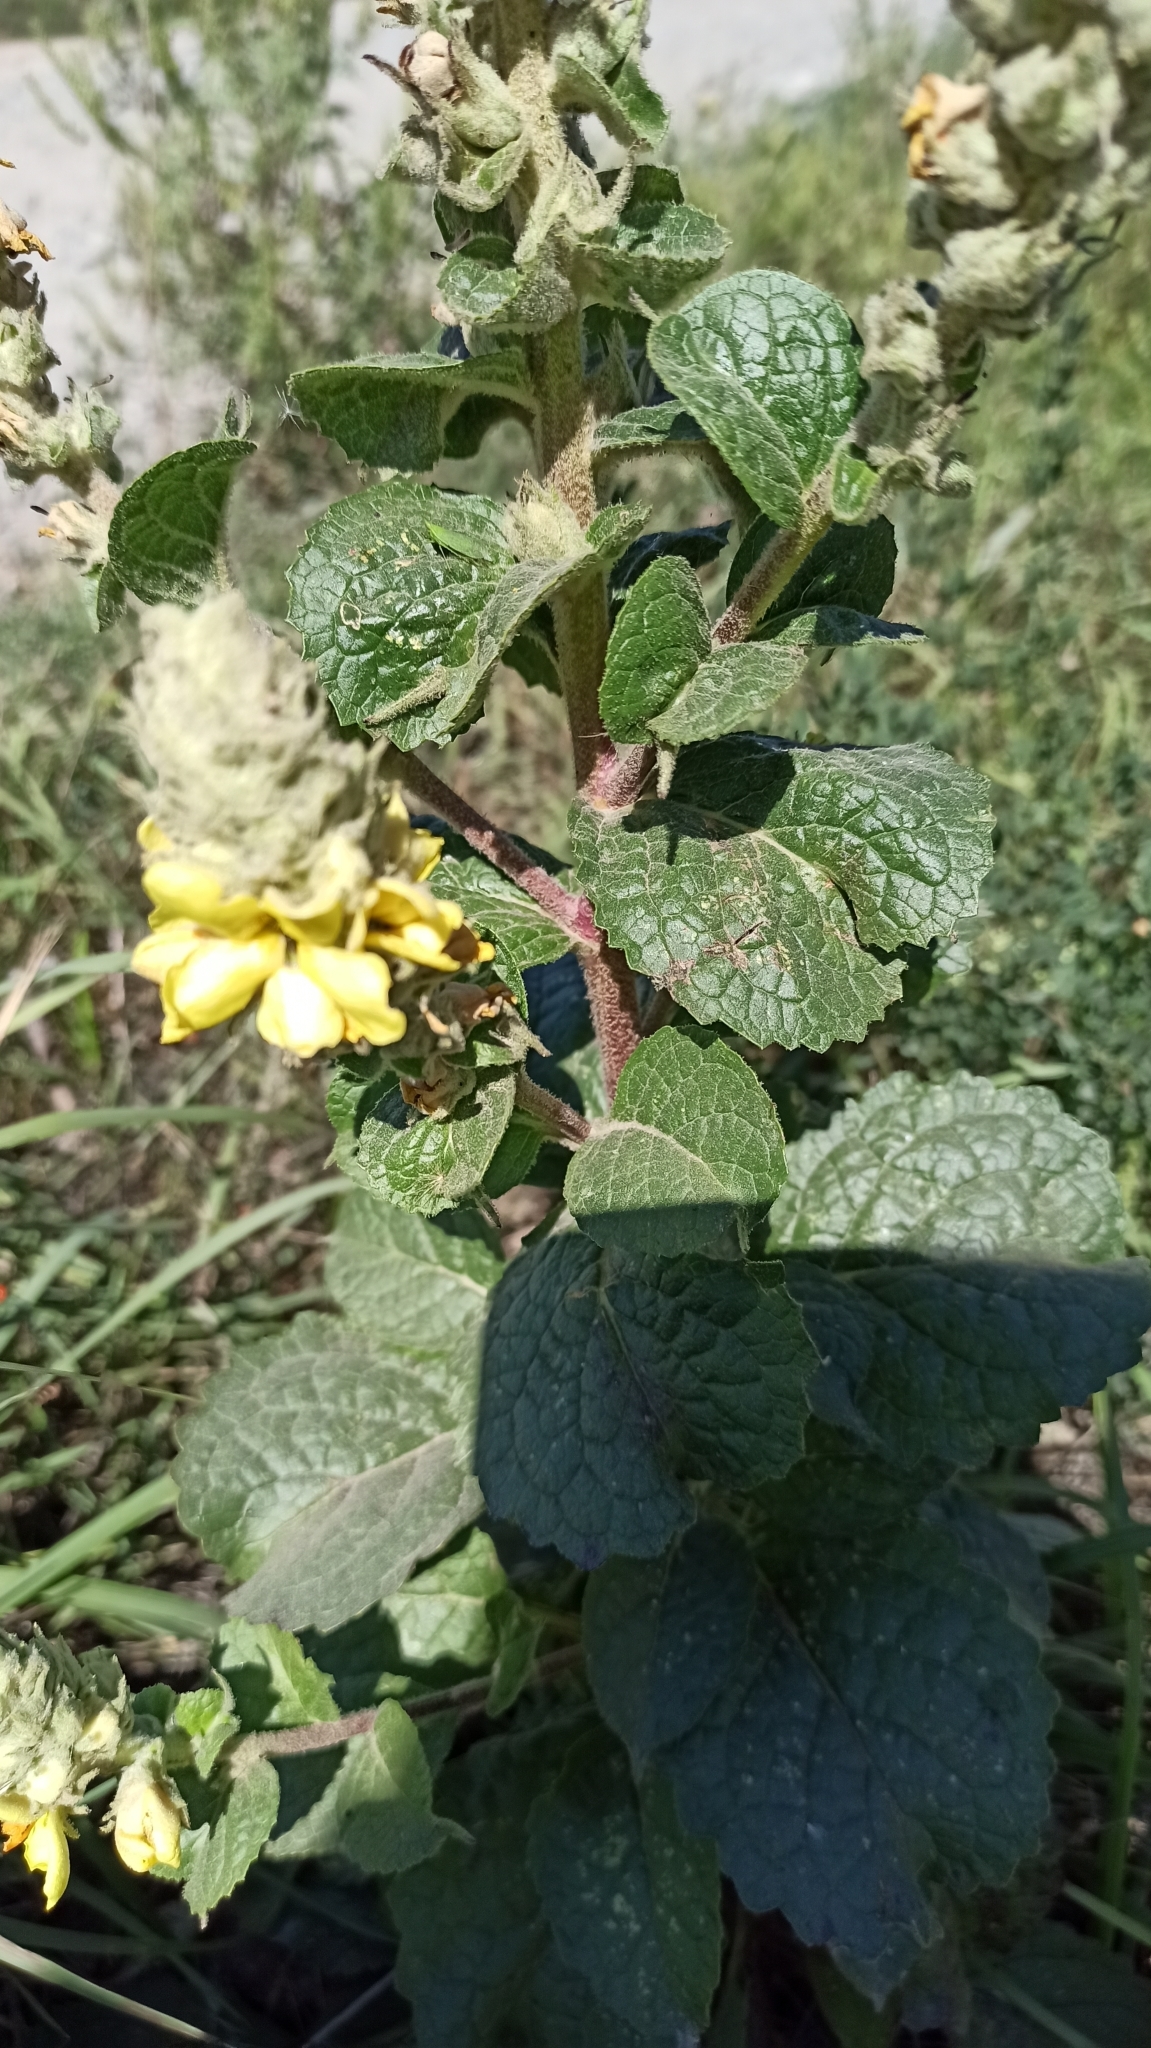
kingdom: Plantae
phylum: Tracheophyta
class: Magnoliopsida
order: Lamiales
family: Scrophulariaceae
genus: Verbascum
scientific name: Verbascum ovalifolium
